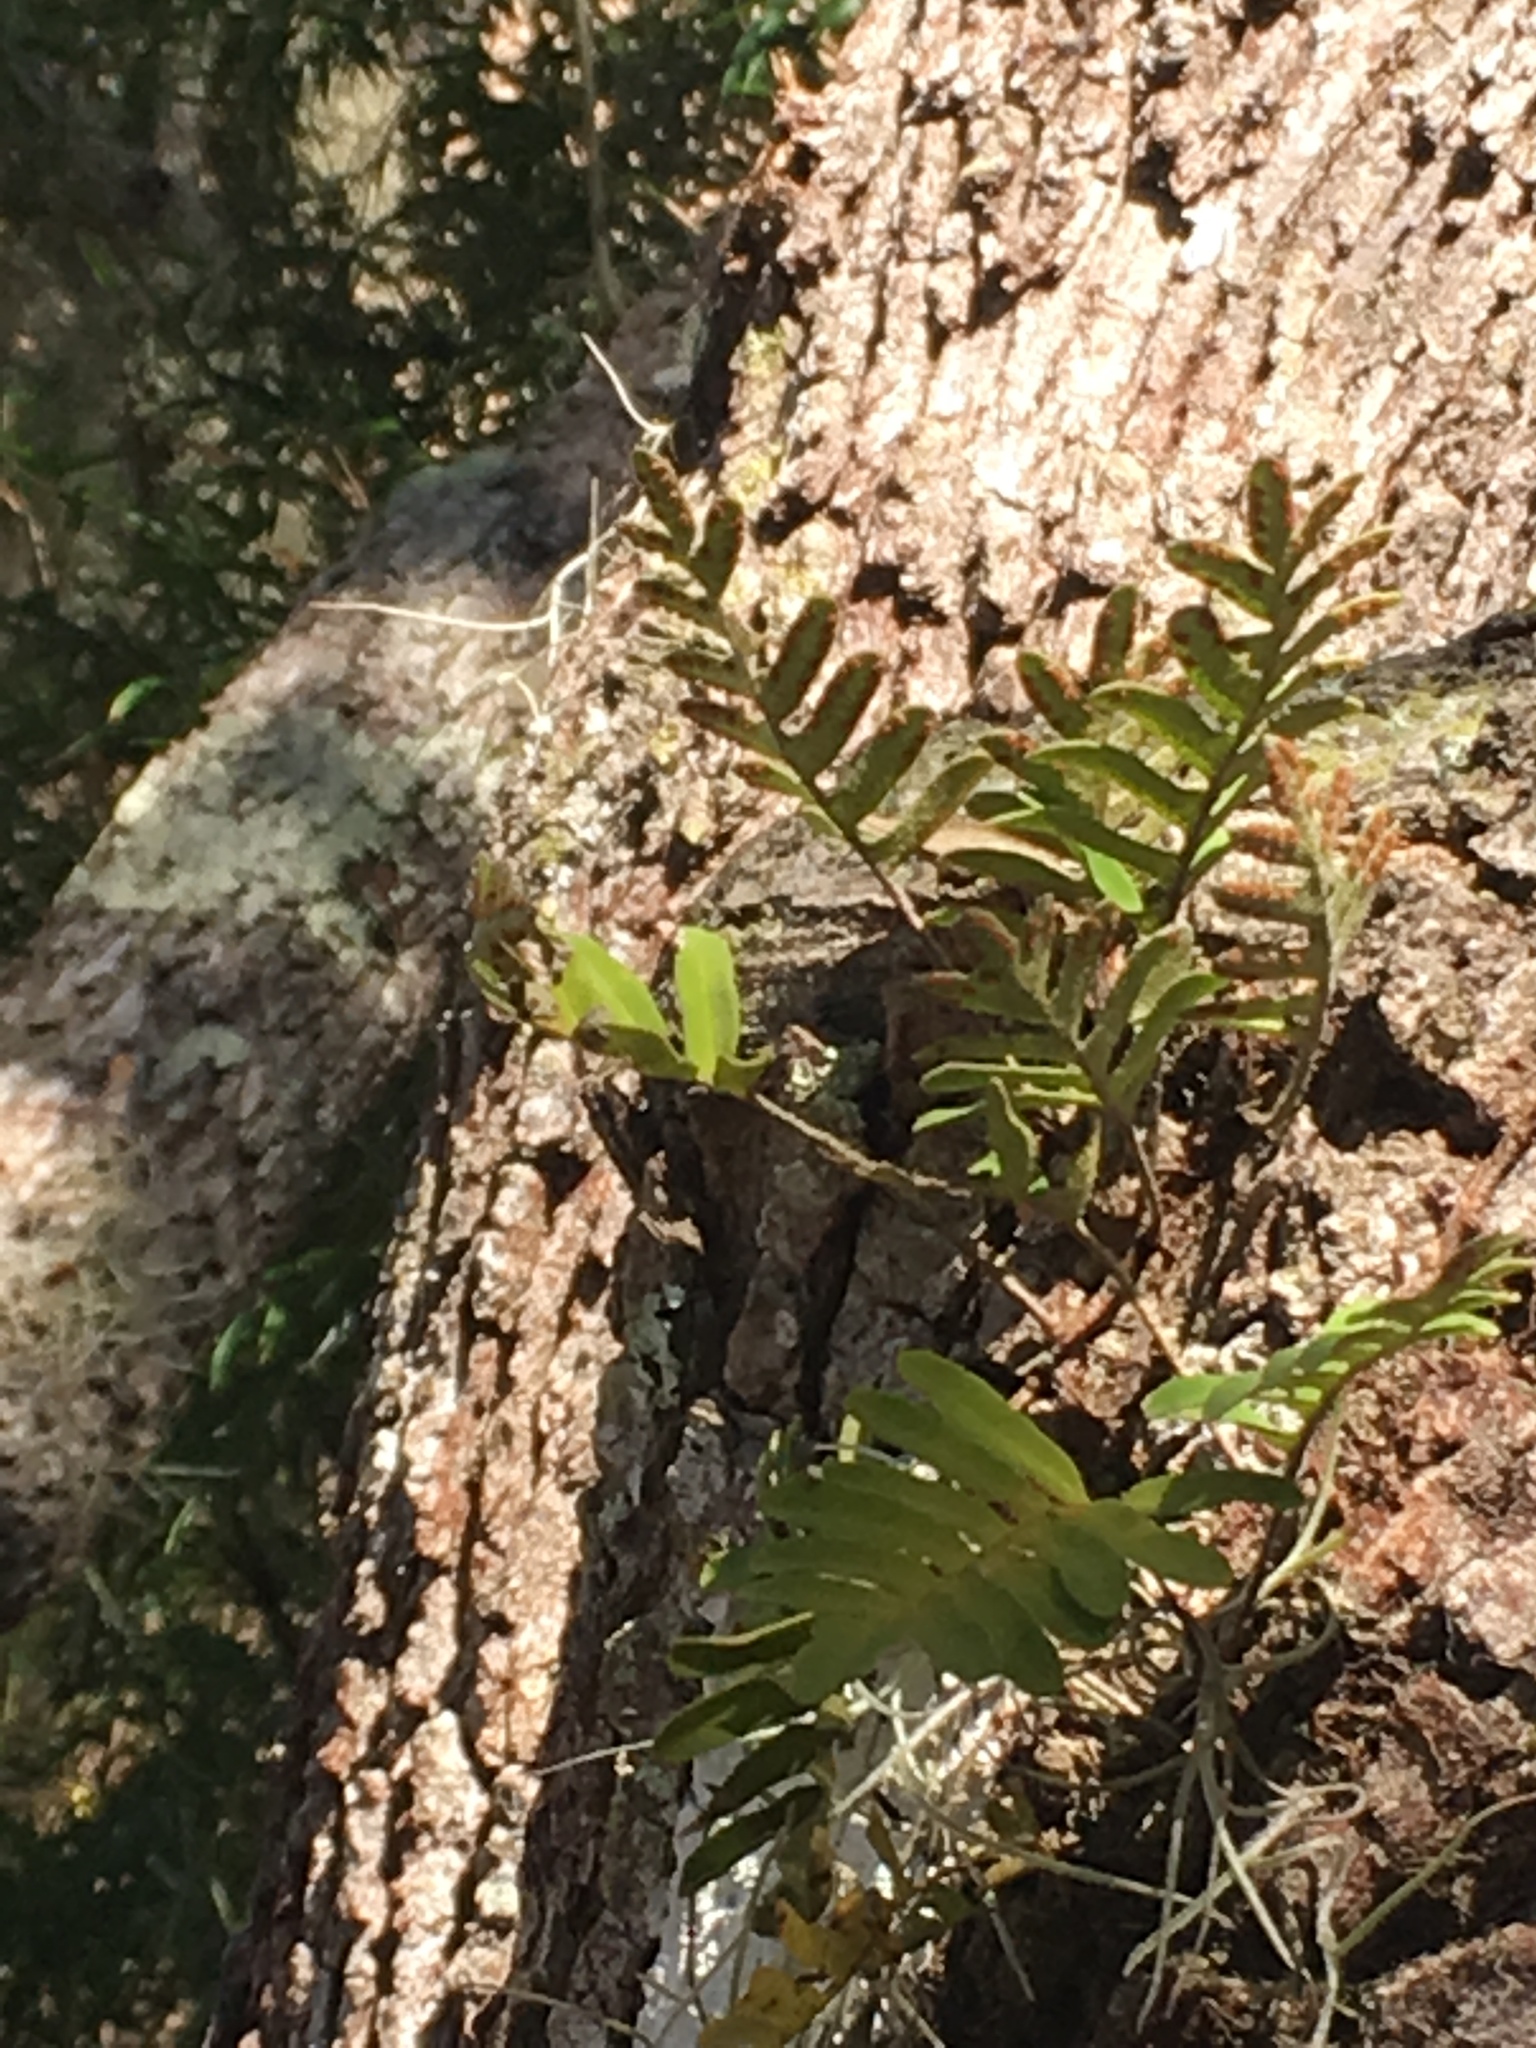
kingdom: Plantae
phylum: Tracheophyta
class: Polypodiopsida
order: Polypodiales
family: Polypodiaceae
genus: Pleopeltis
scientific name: Pleopeltis michauxiana
